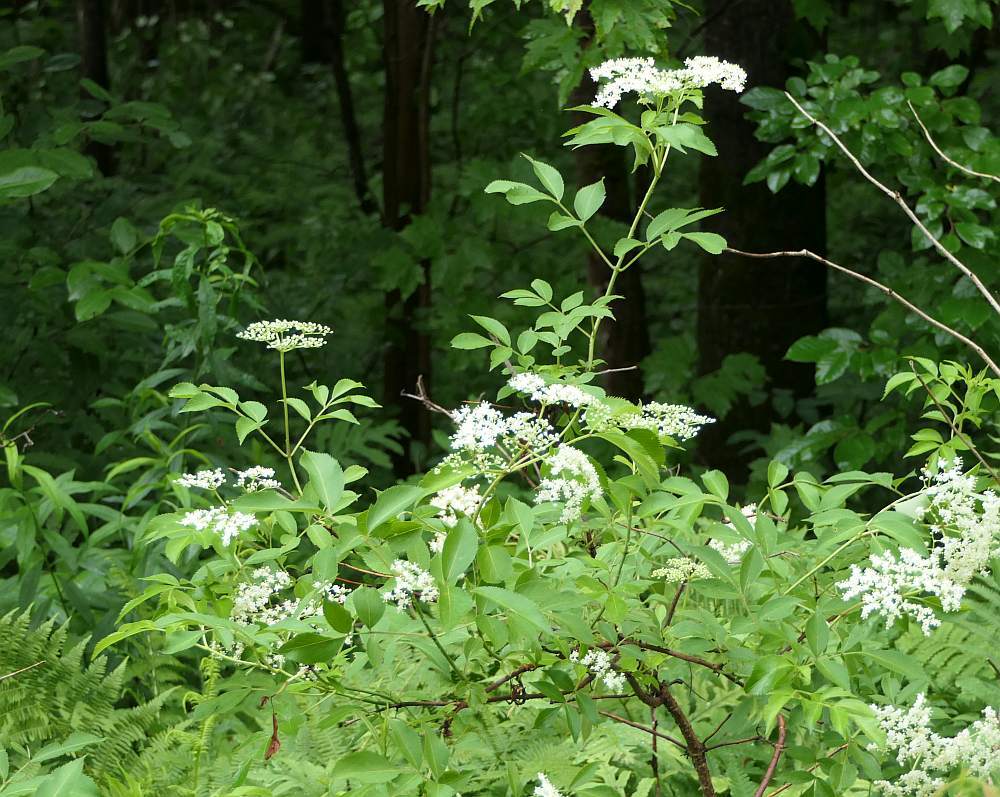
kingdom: Plantae
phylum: Tracheophyta
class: Magnoliopsida
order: Dipsacales
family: Viburnaceae
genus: Sambucus
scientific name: Sambucus canadensis
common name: American elder
